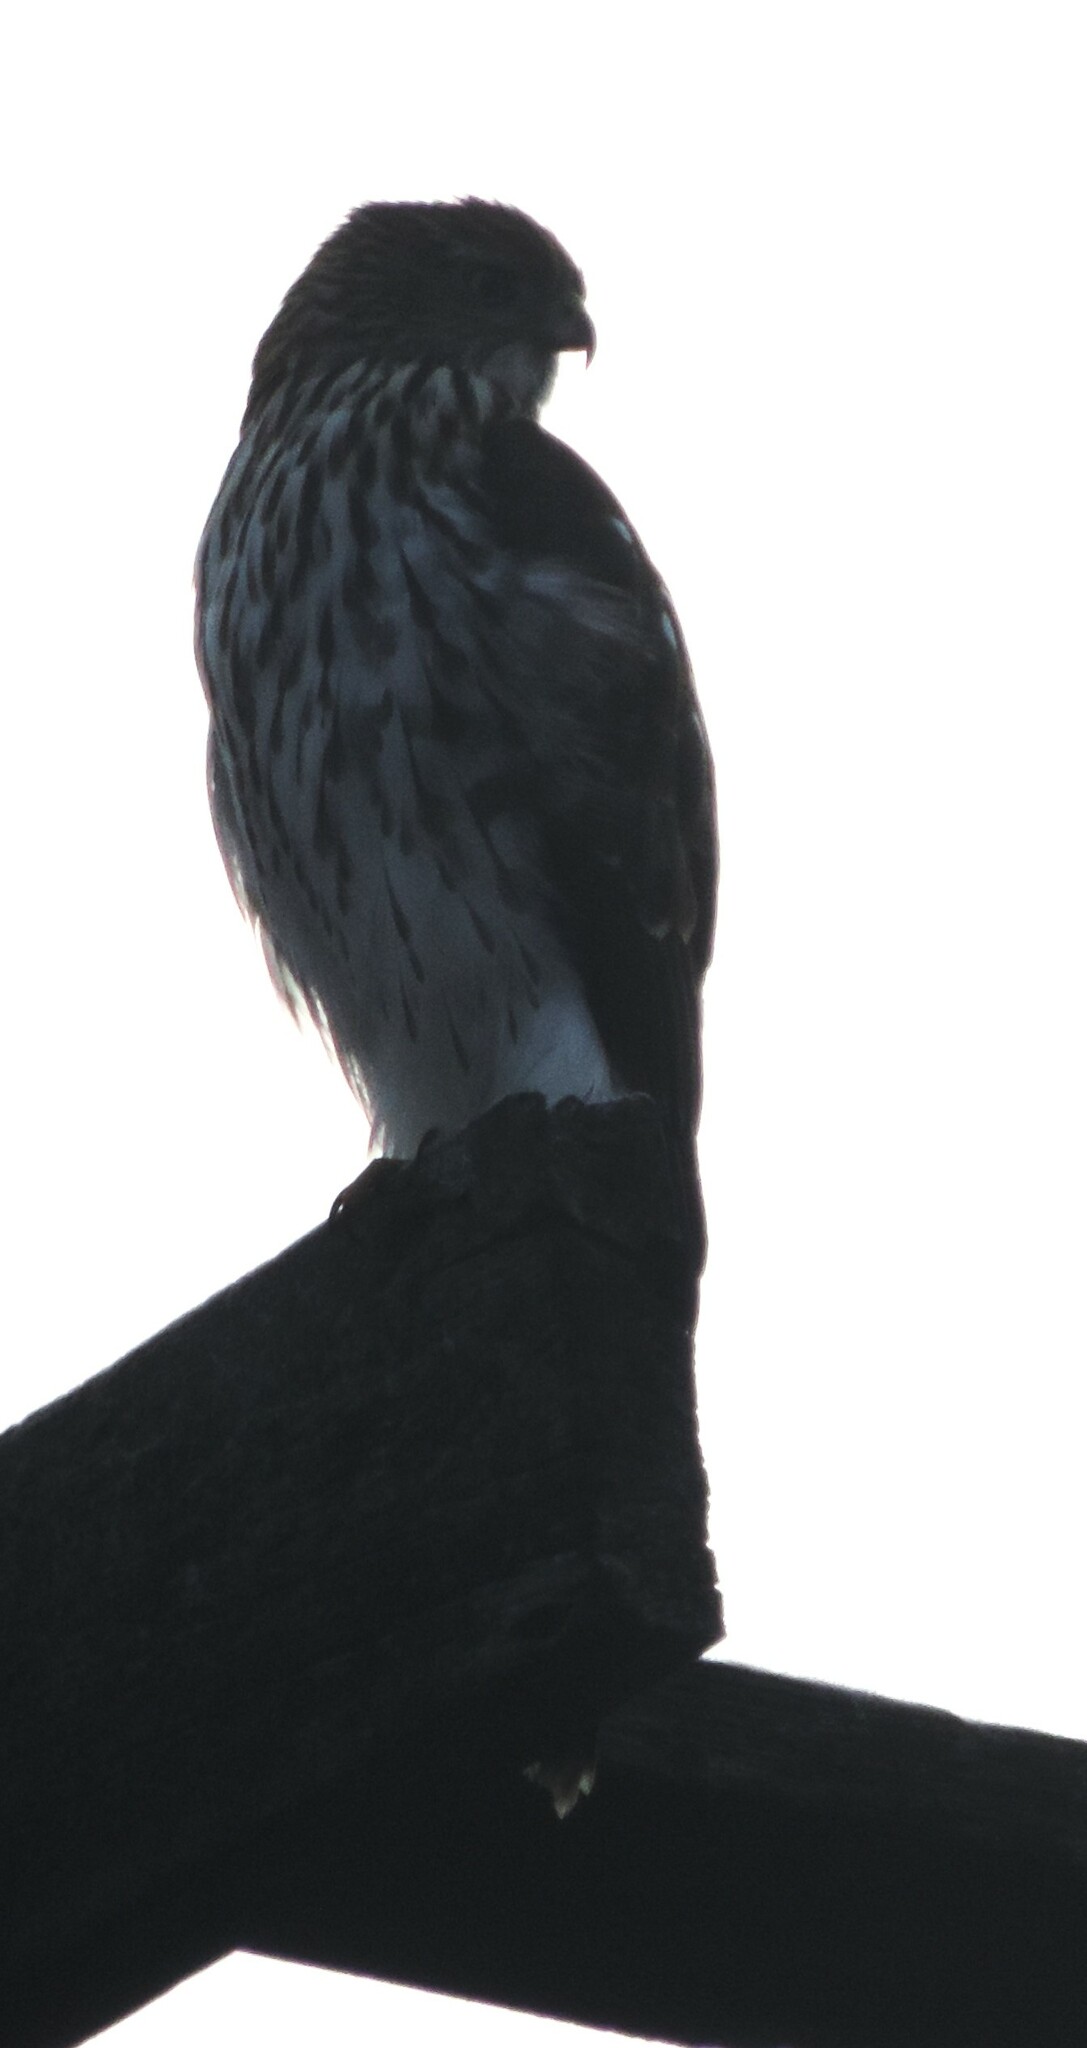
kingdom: Animalia
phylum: Chordata
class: Aves
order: Accipitriformes
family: Accipitridae
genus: Accipiter
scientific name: Accipiter cooperii
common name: Cooper's hawk
